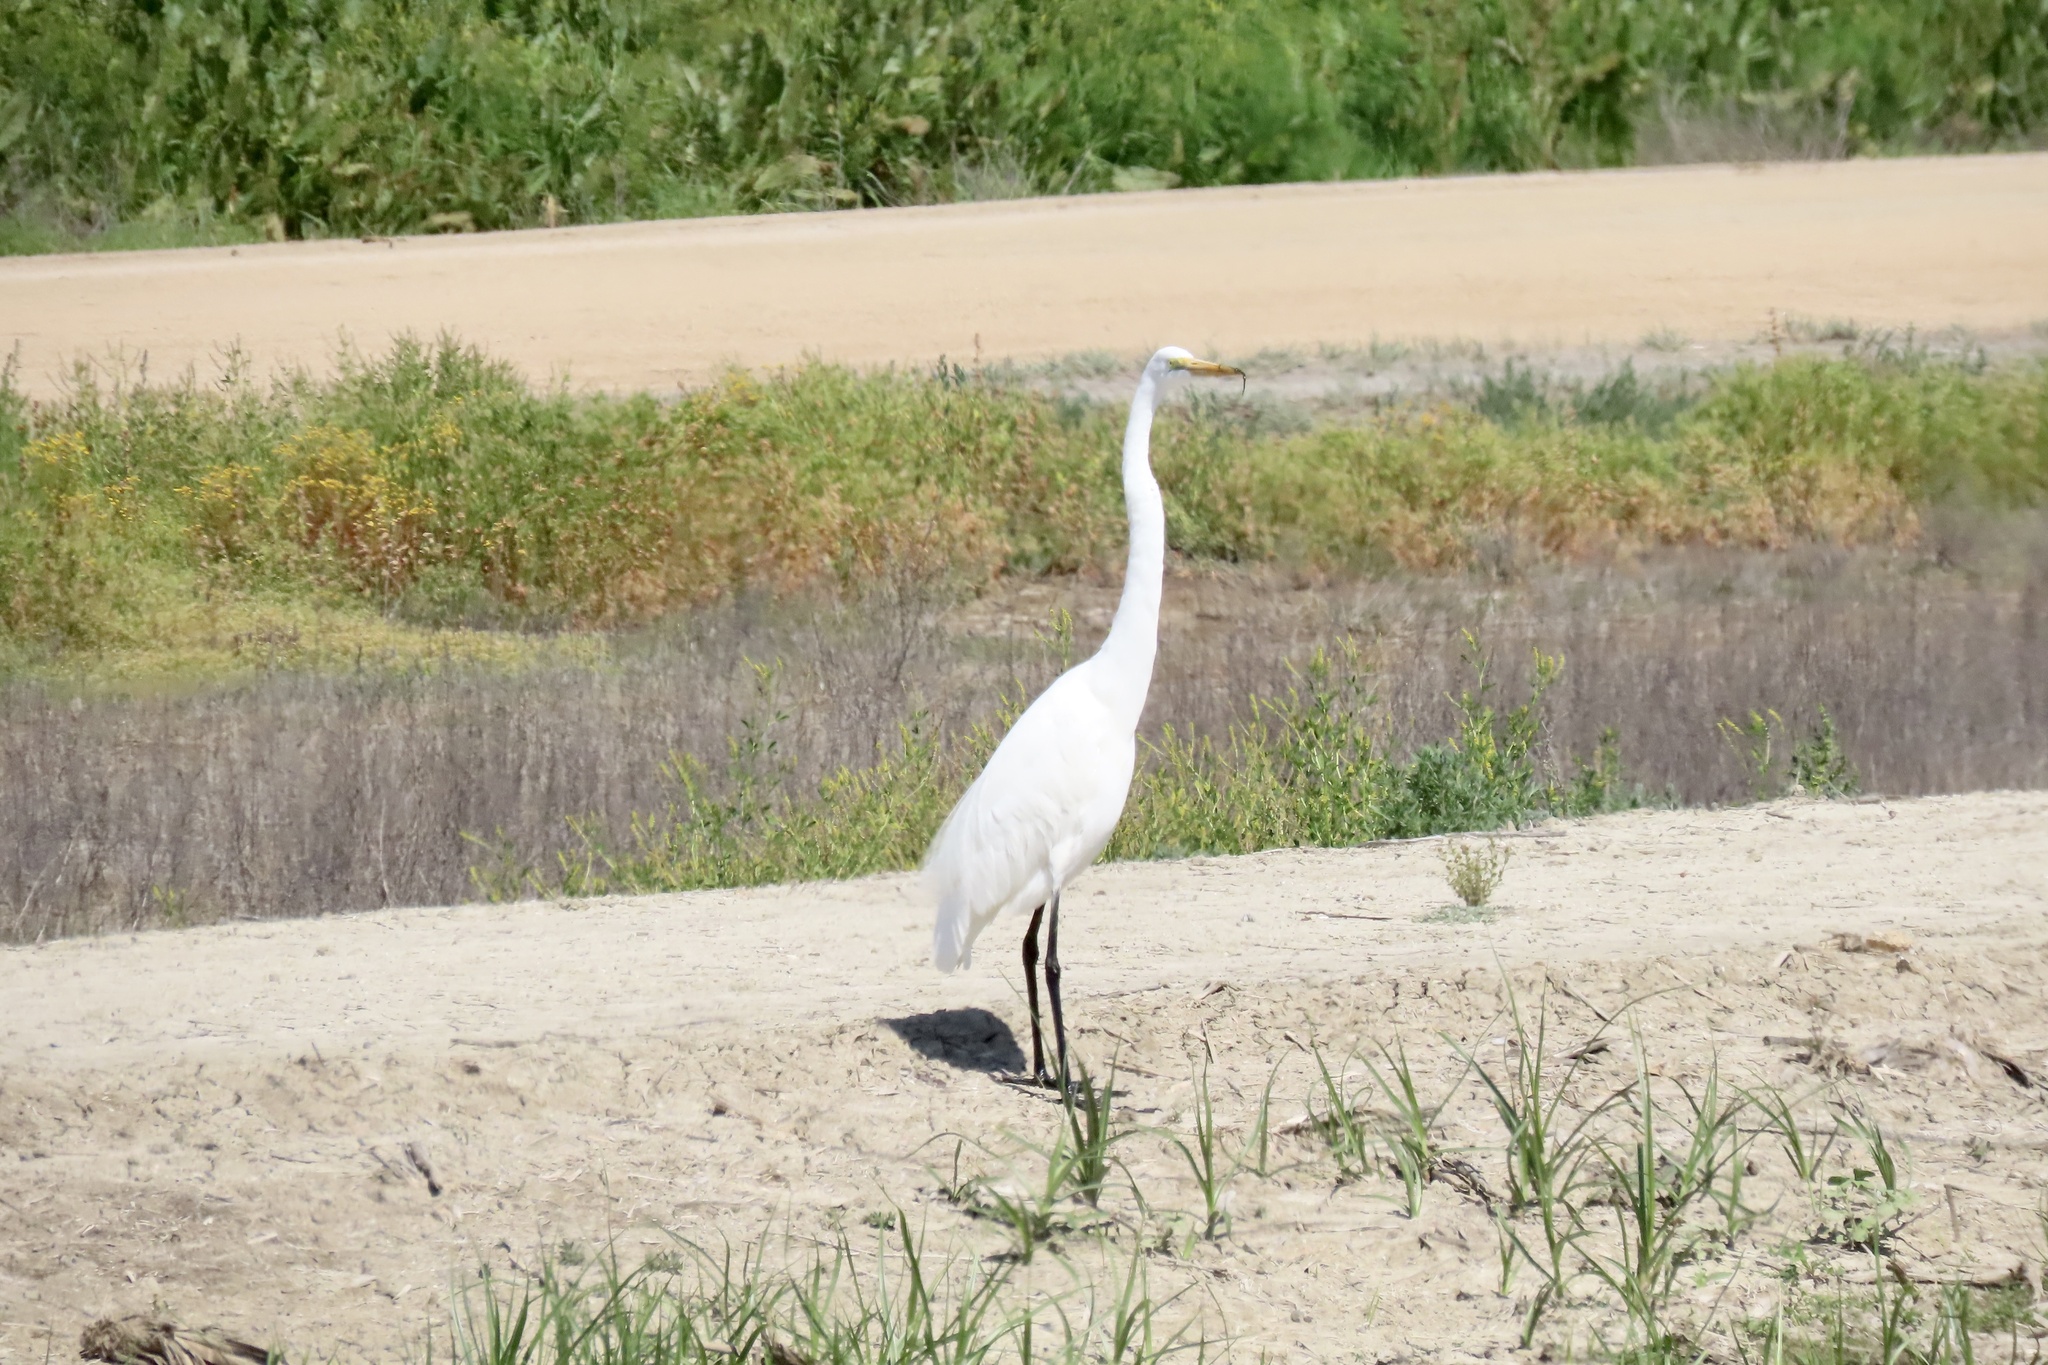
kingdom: Animalia
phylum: Chordata
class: Aves
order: Pelecaniformes
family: Ardeidae
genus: Ardea
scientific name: Ardea alba
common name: Great egret
